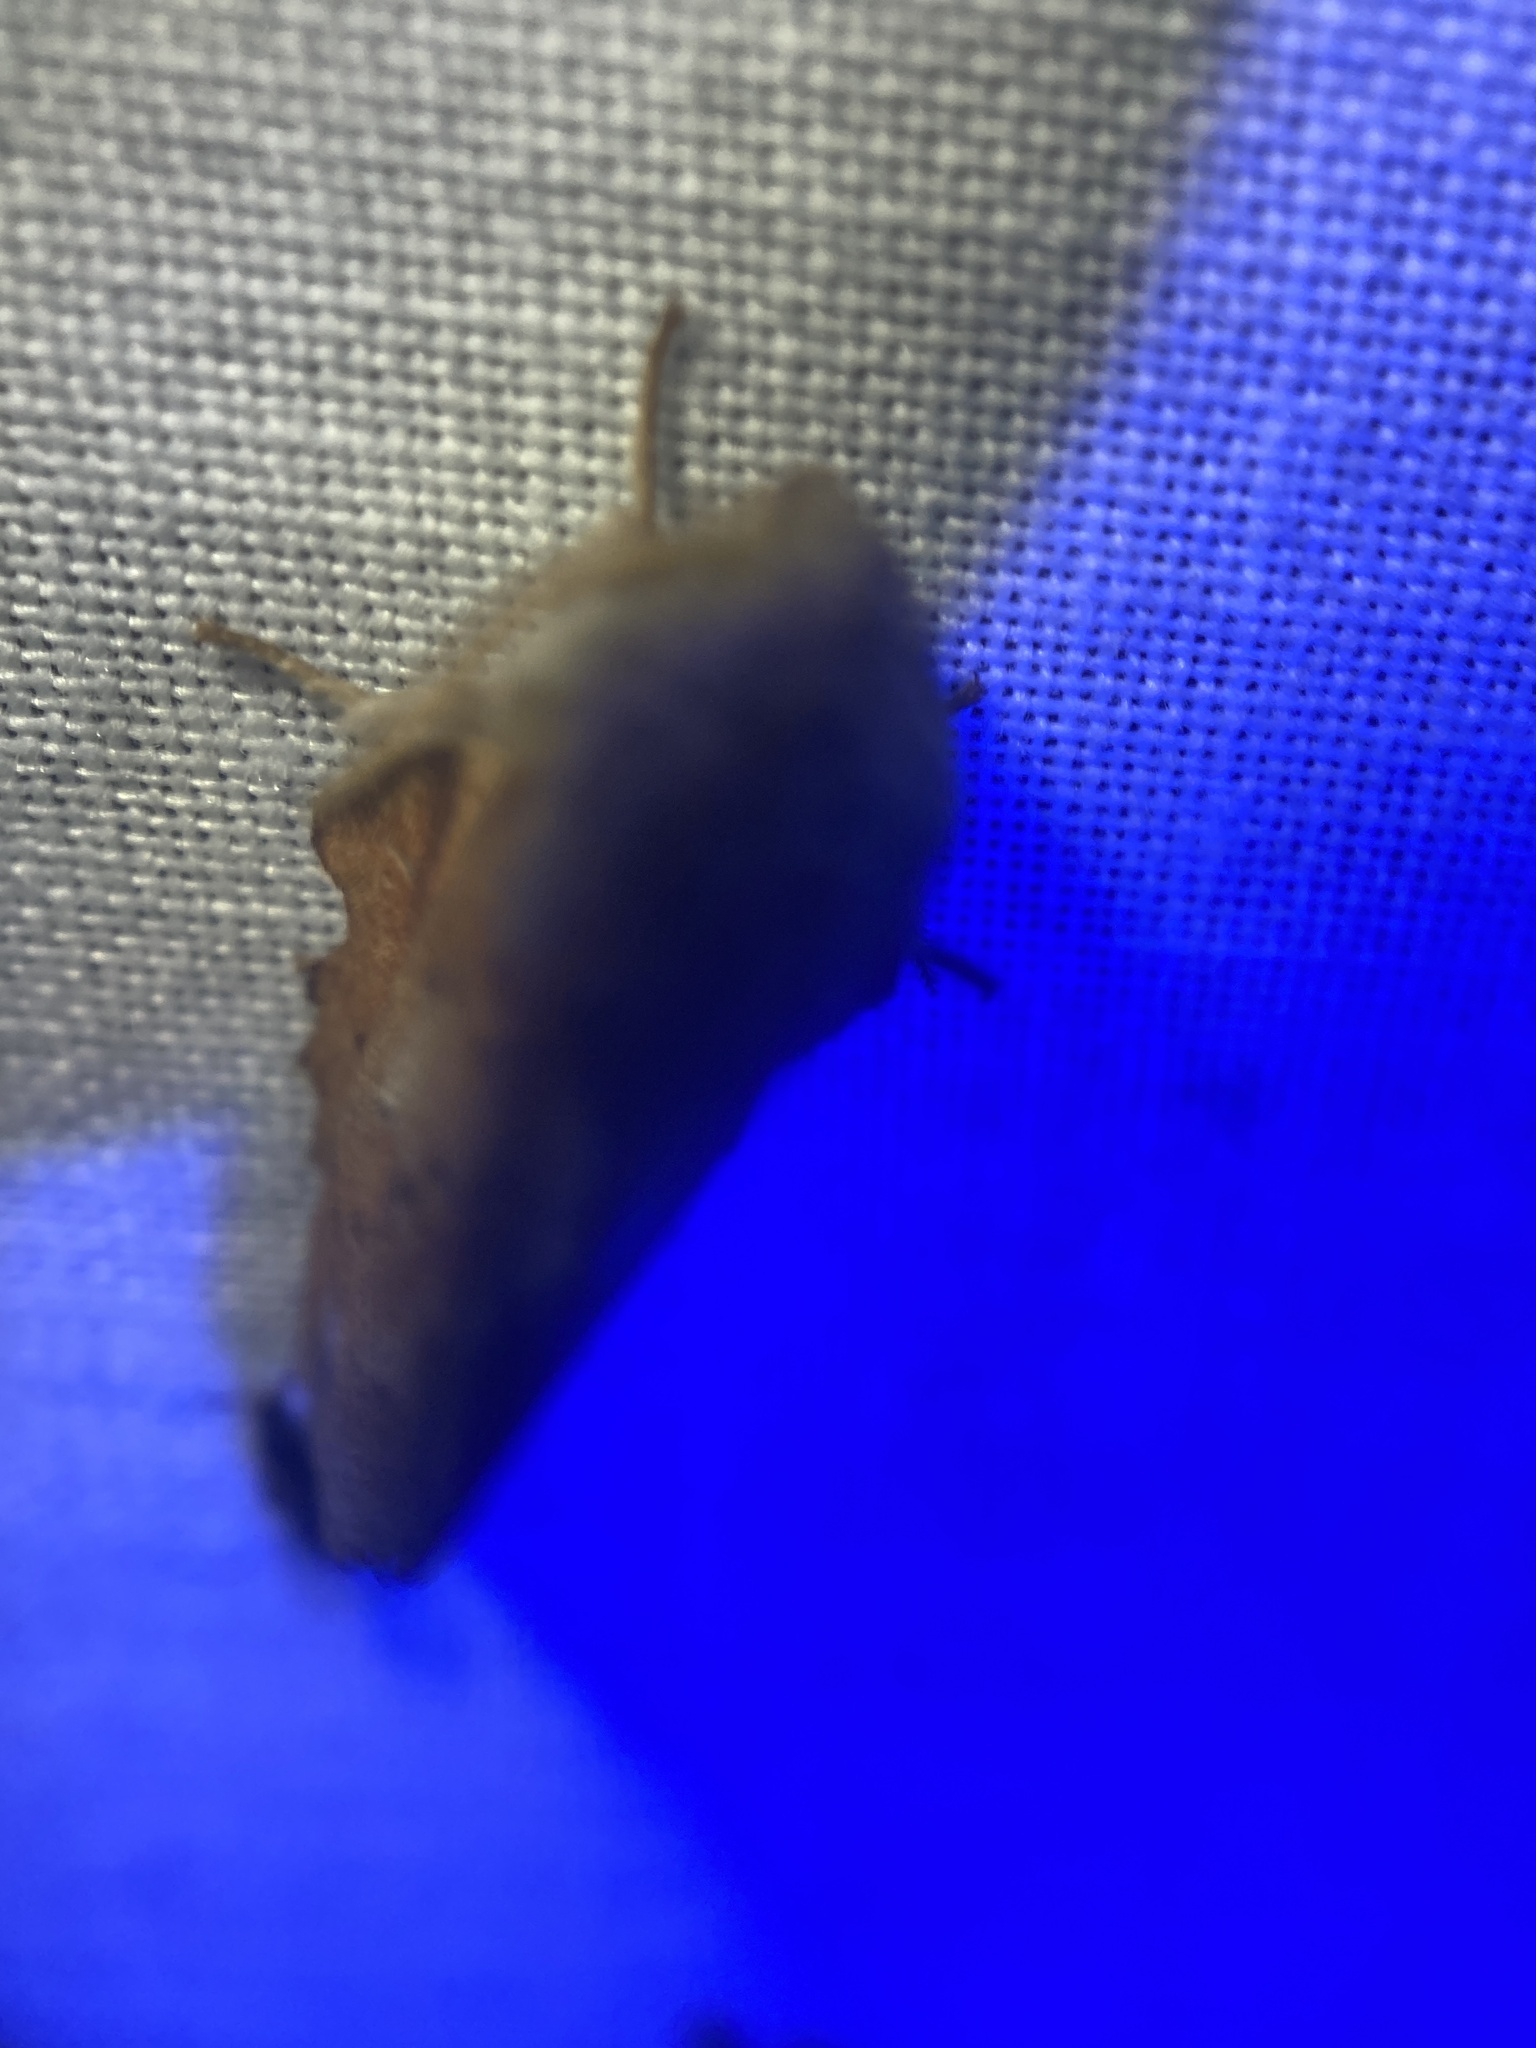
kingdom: Animalia
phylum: Arthropoda
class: Insecta
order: Lepidoptera
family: Lasiocampidae
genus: Phyllodesma
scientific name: Phyllodesma americana
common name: American lappet moth
